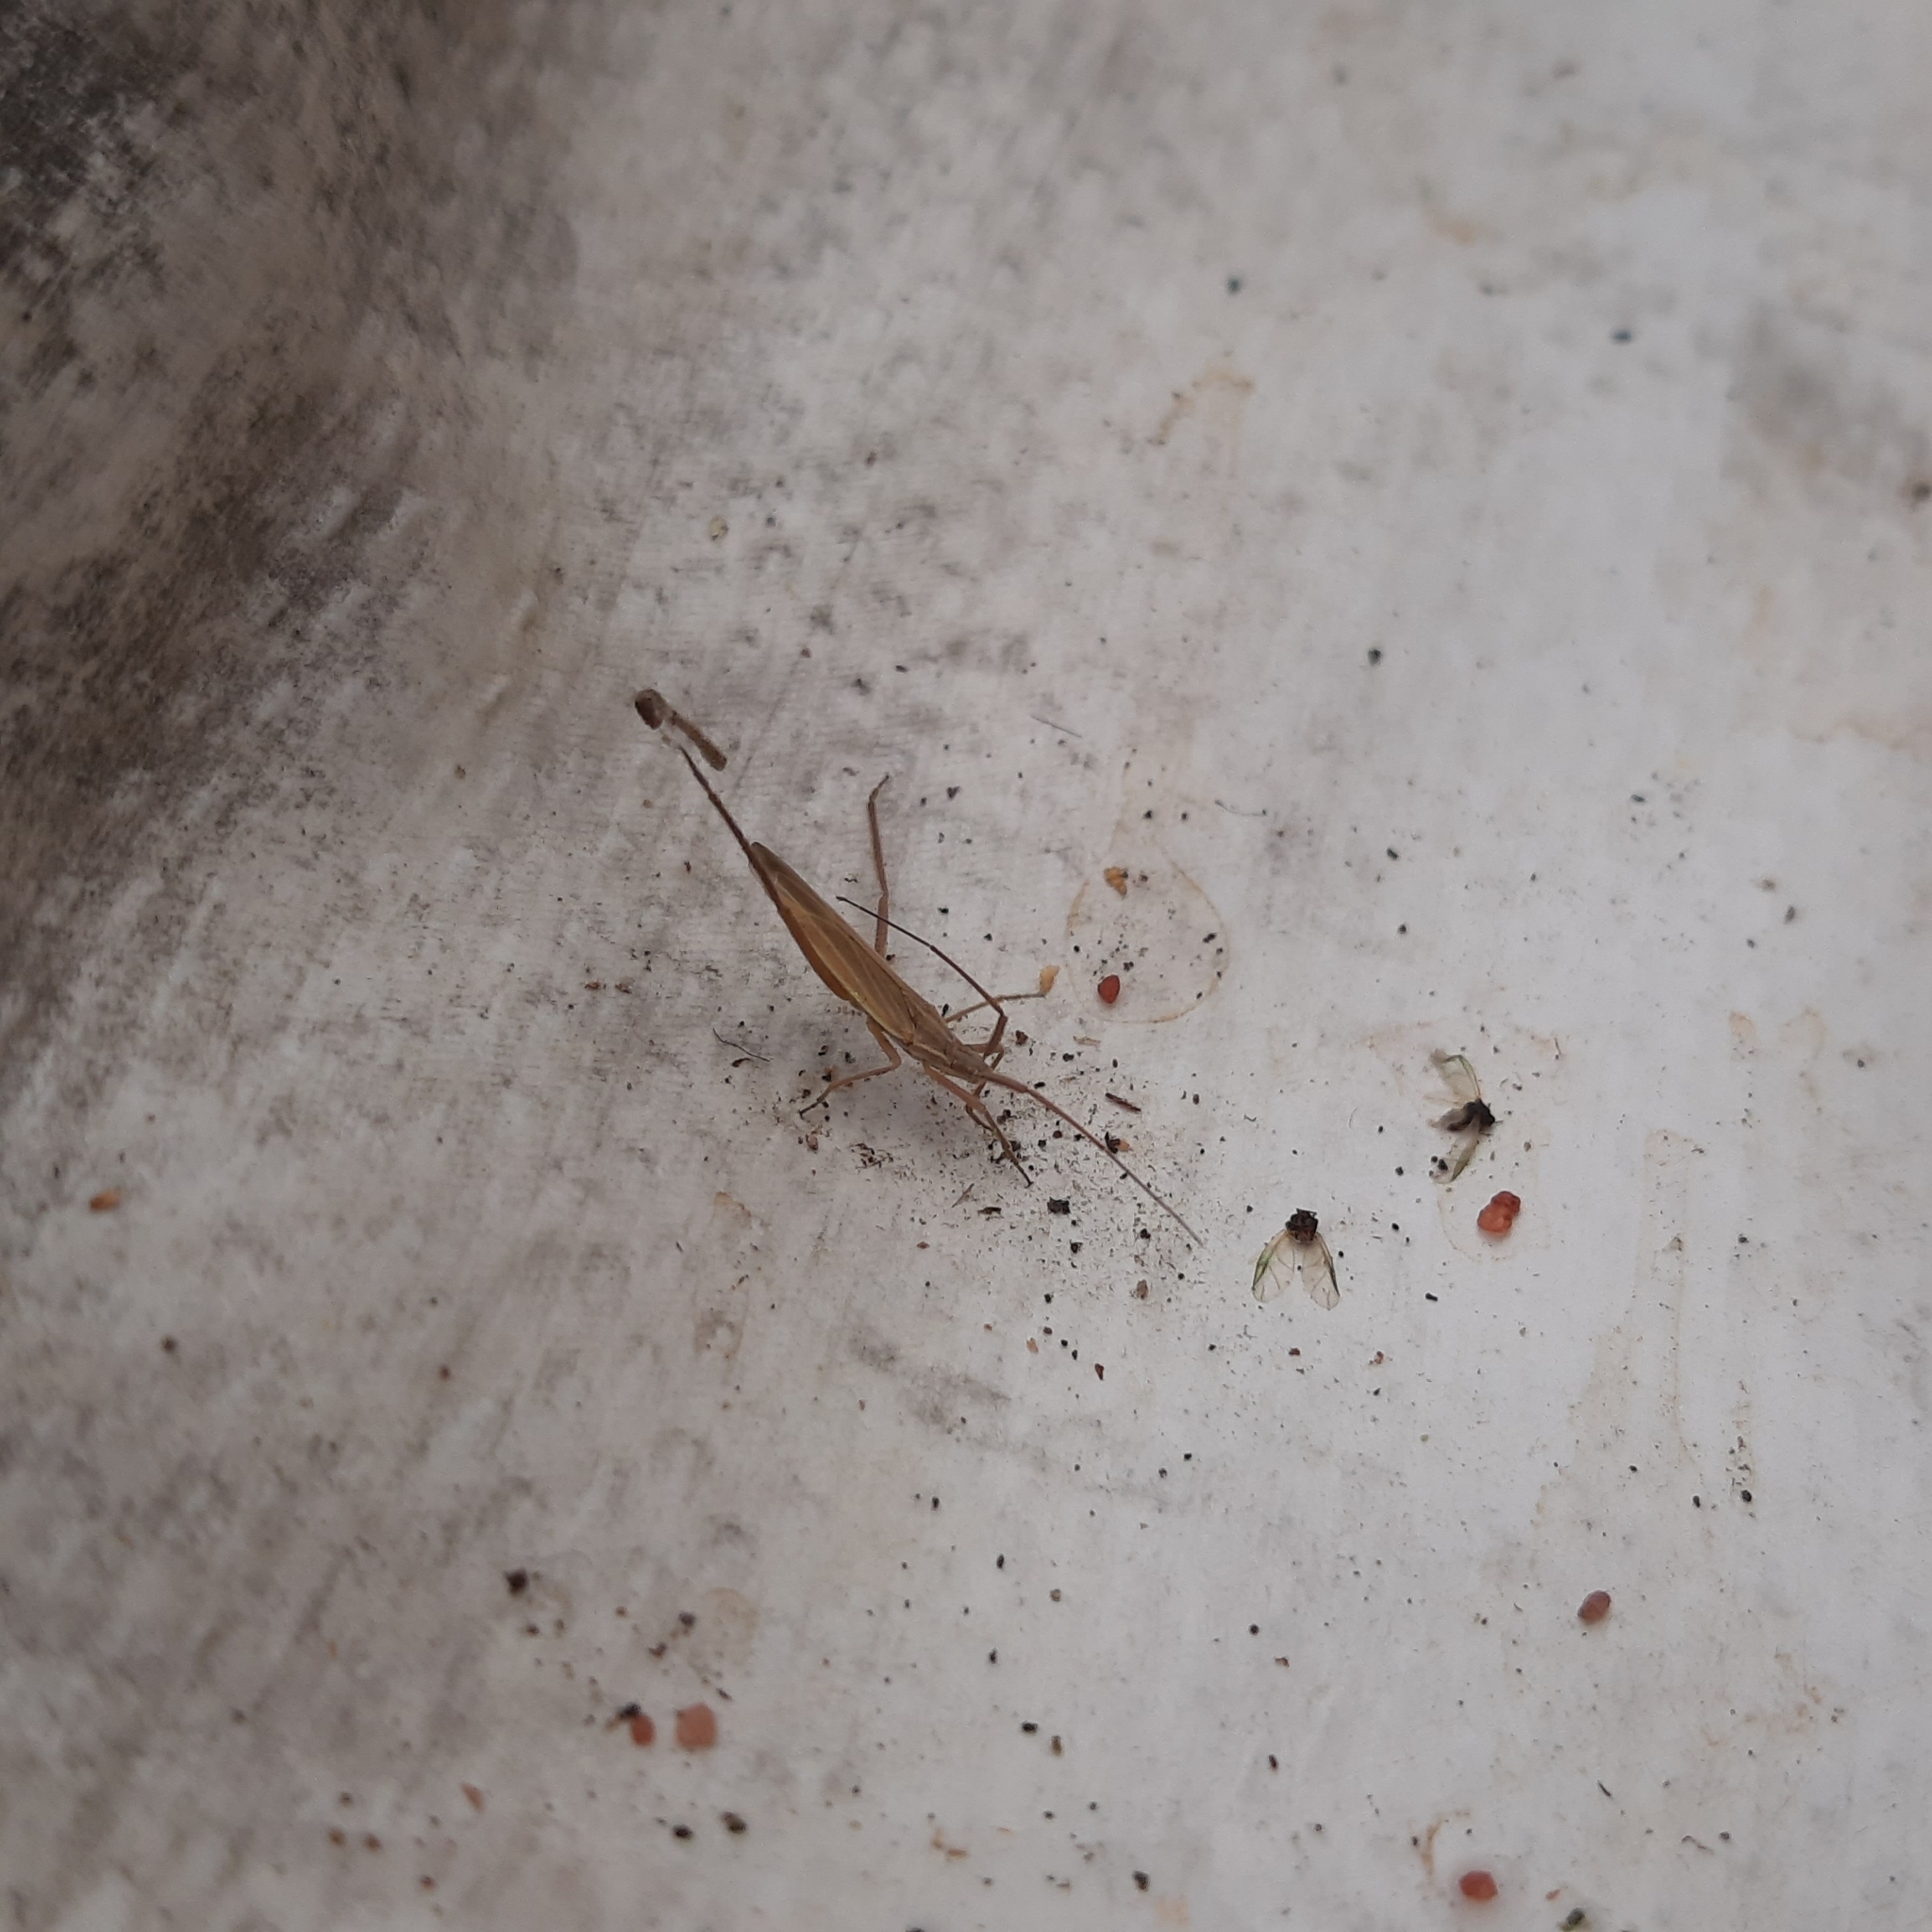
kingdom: Animalia
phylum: Arthropoda
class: Insecta
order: Hemiptera
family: Miridae
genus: Notostira
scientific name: Notostira
